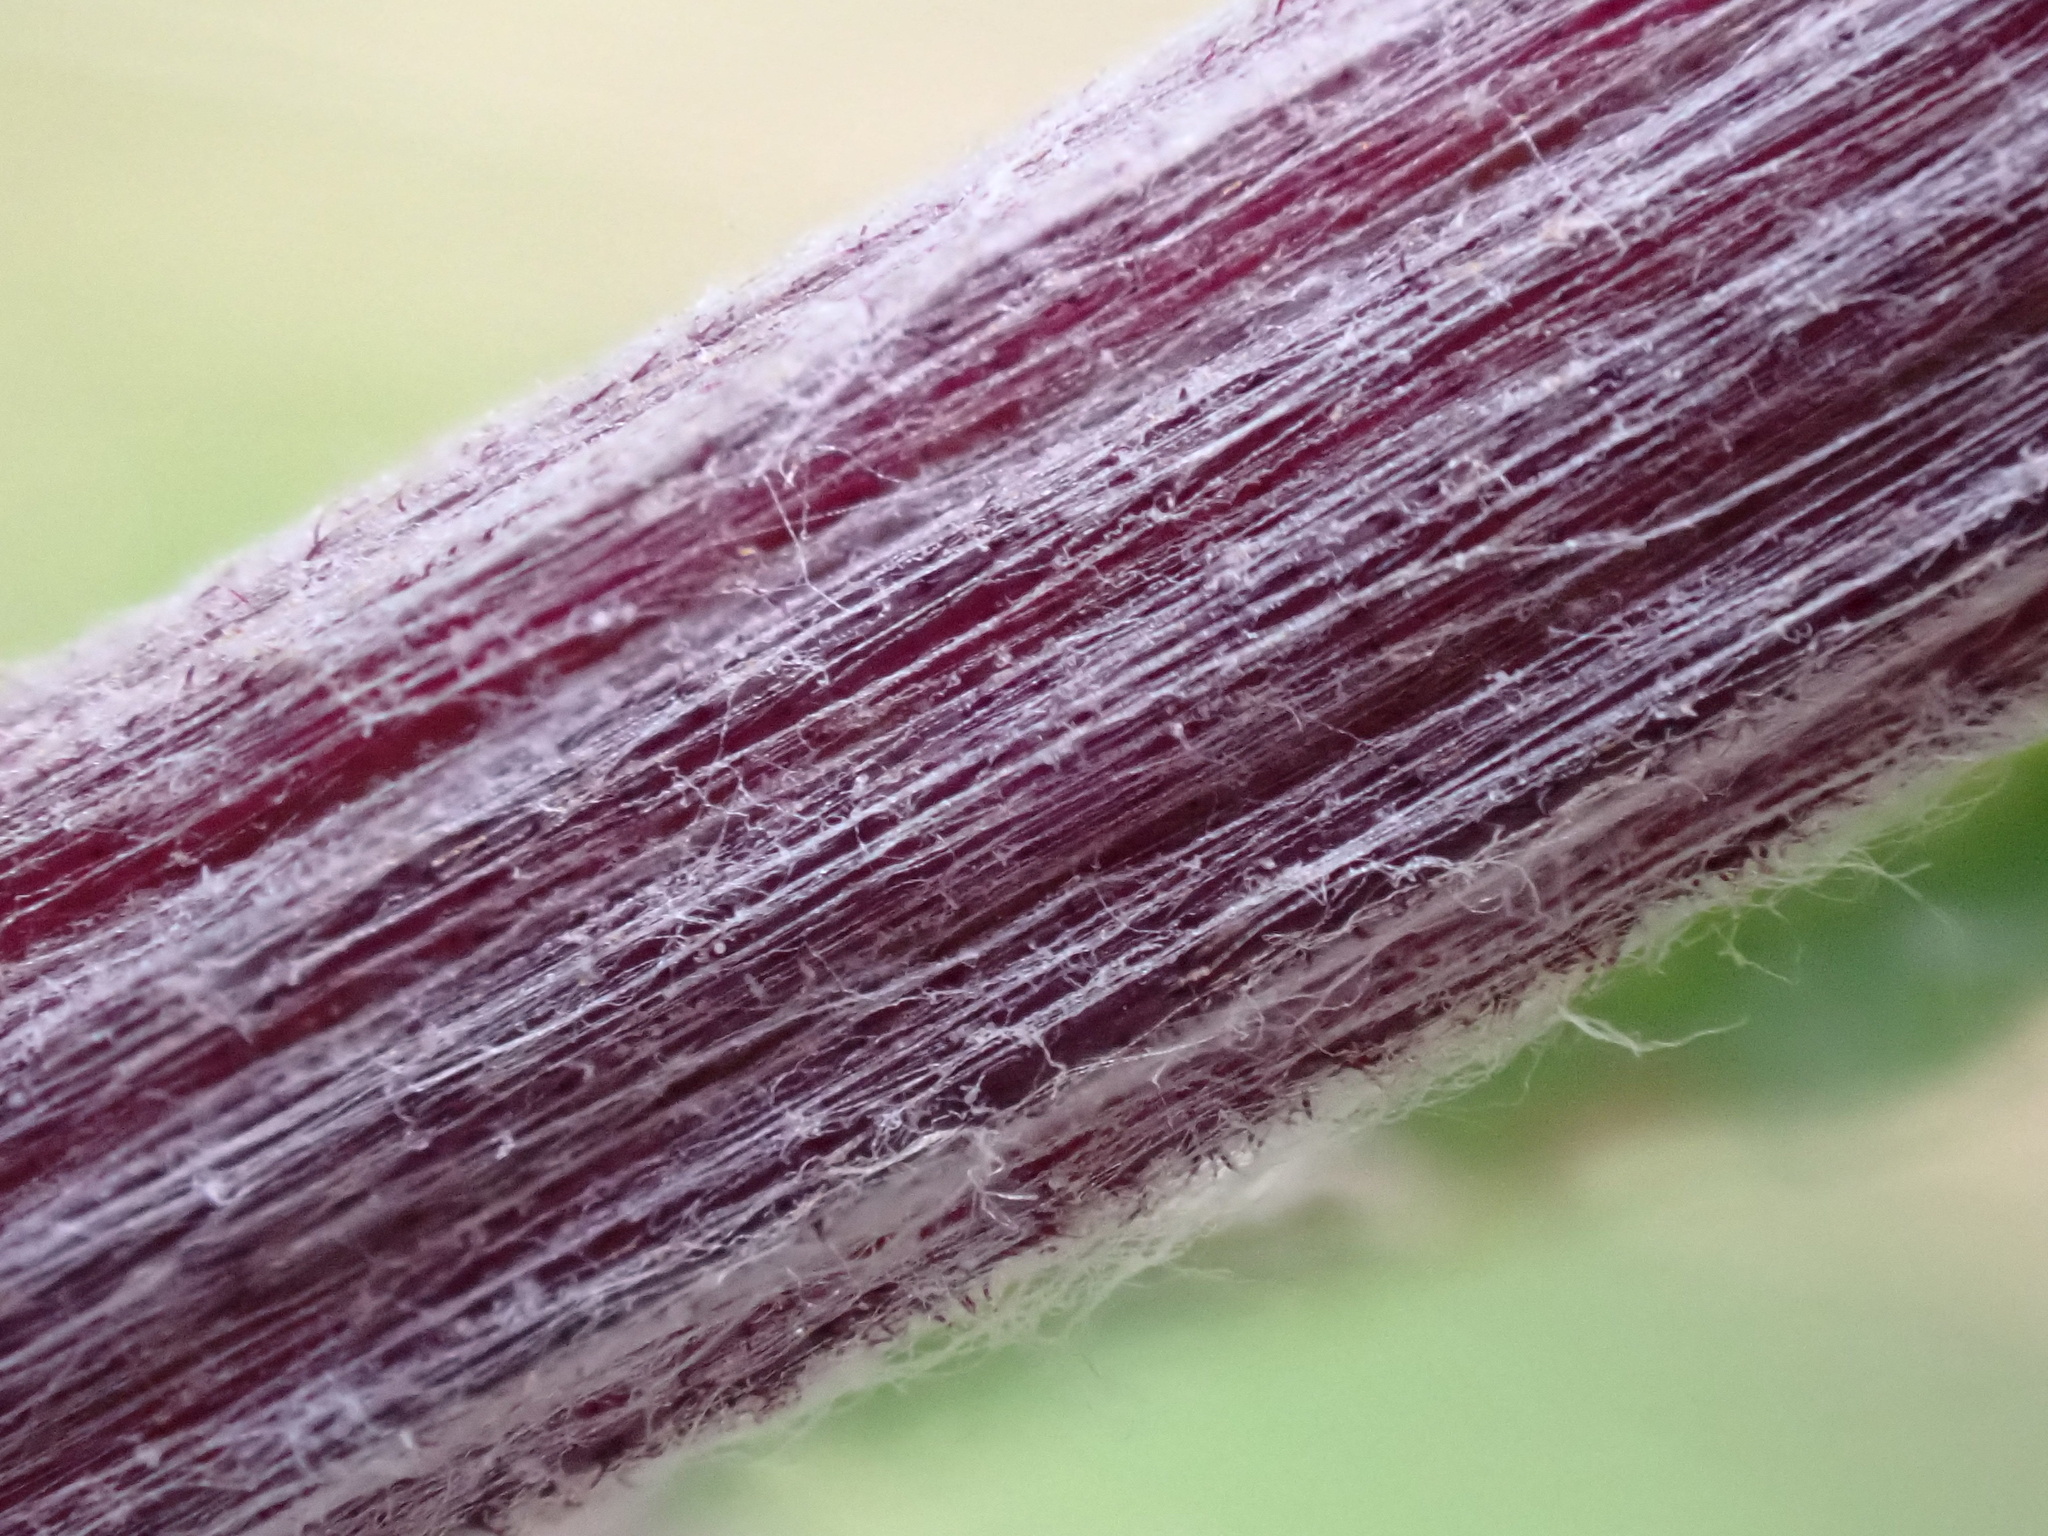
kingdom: Plantae
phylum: Tracheophyta
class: Magnoliopsida
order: Asterales
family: Asteraceae
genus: Cirsium
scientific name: Cirsium heterophyllum
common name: Melancholy thistle
